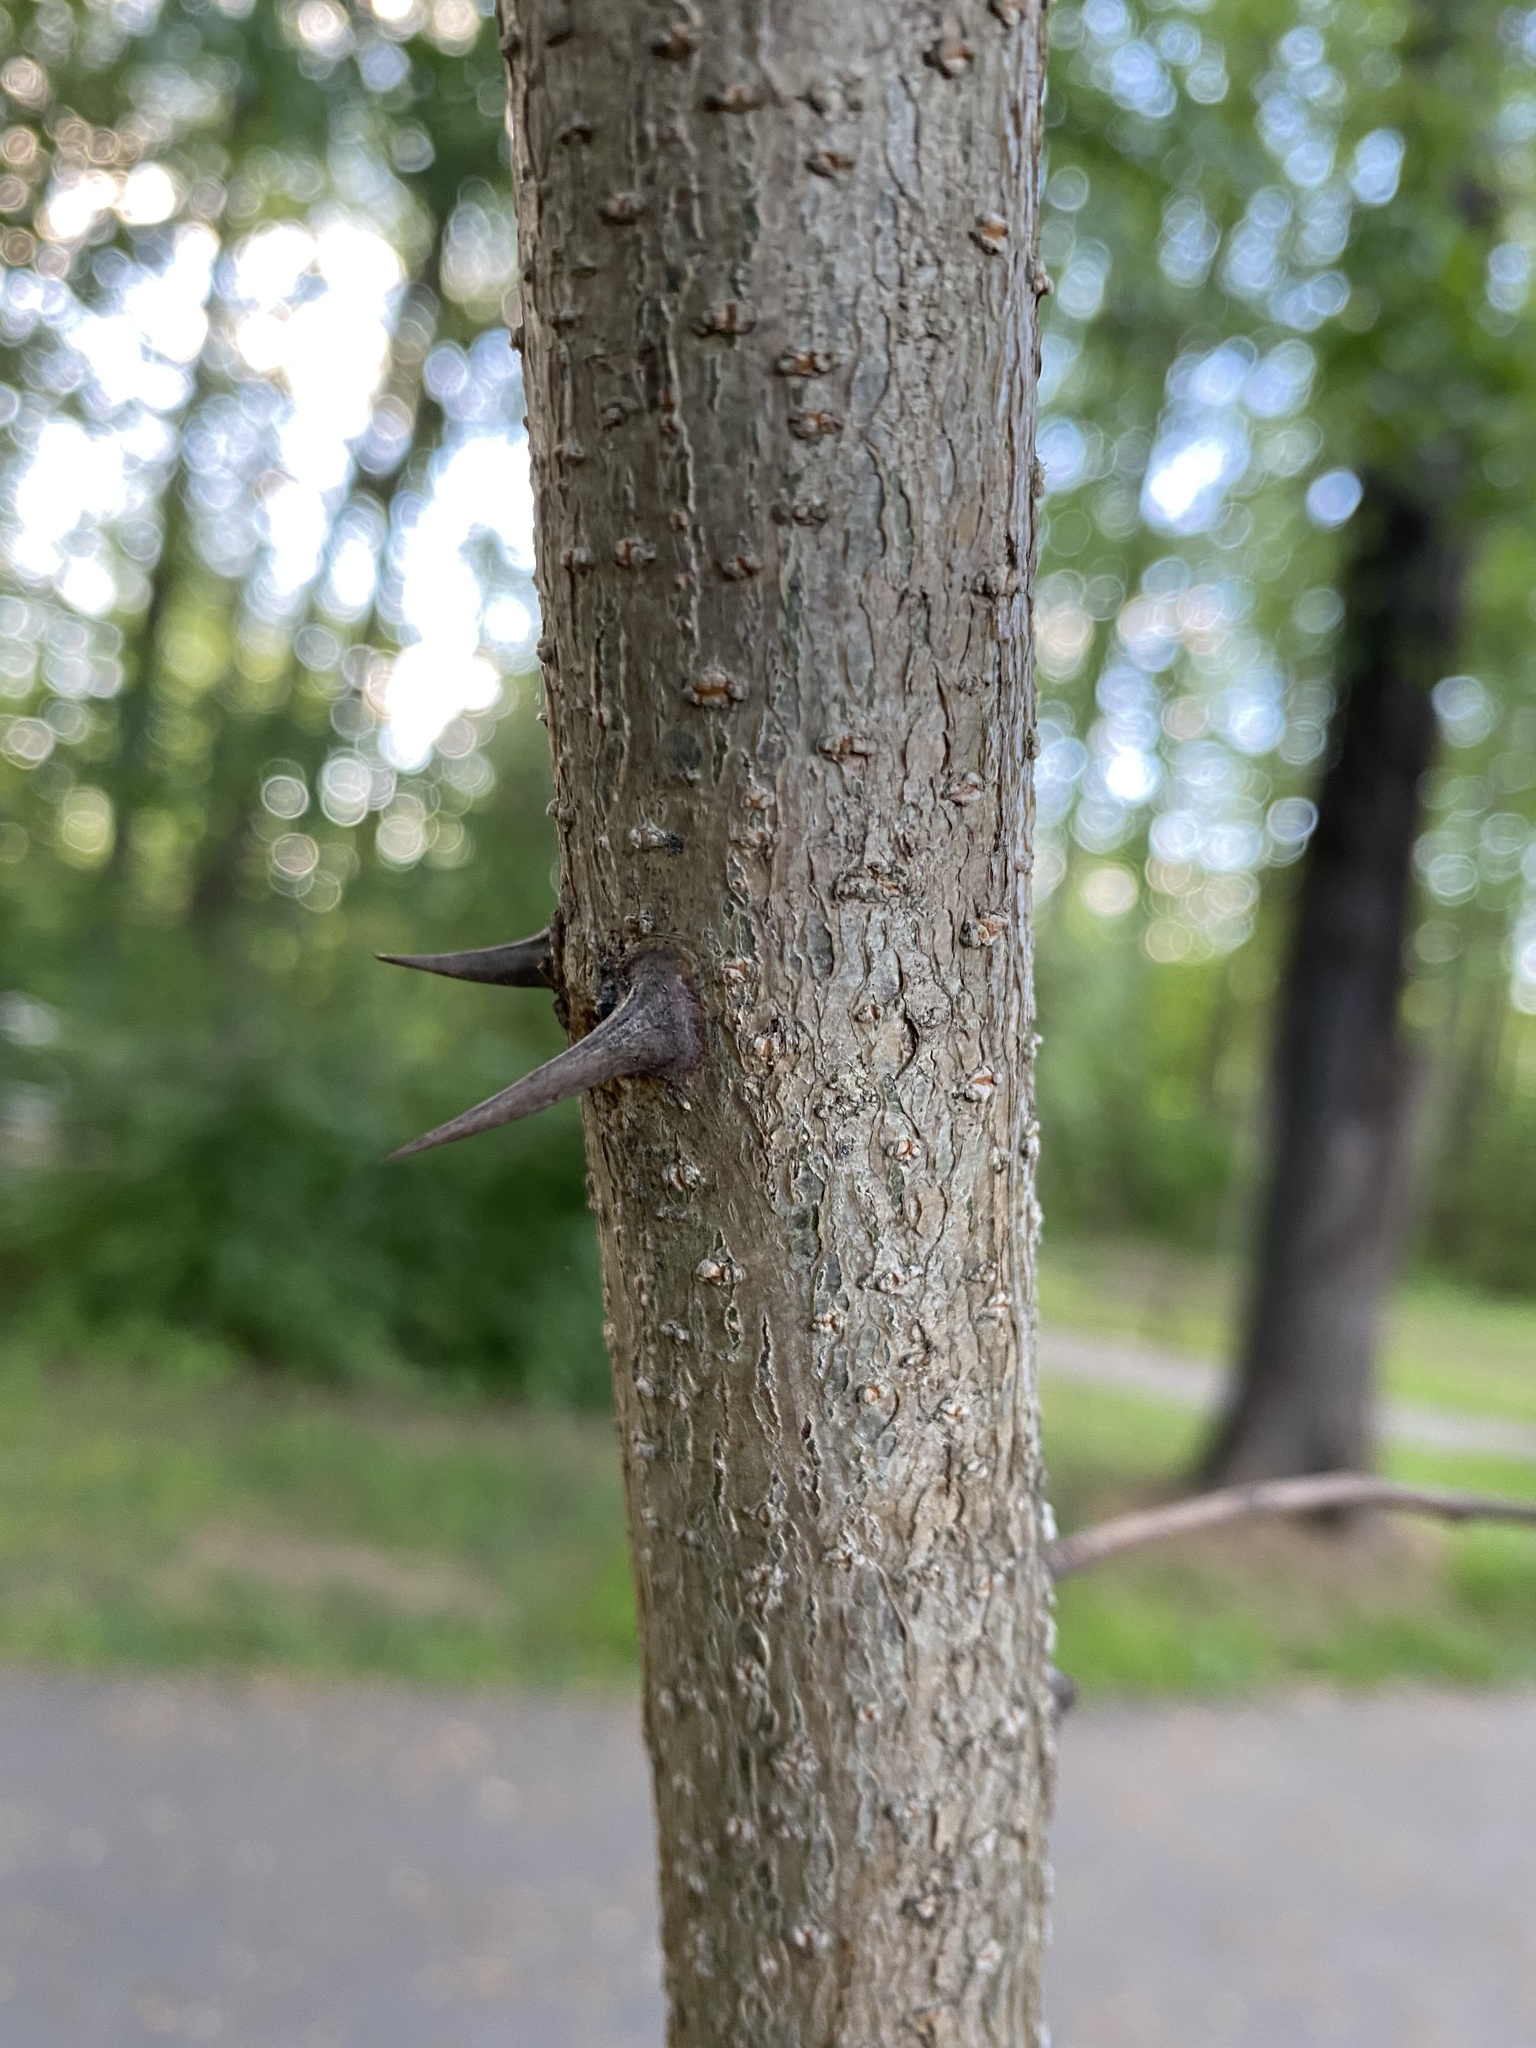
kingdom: Plantae
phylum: Tracheophyta
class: Magnoliopsida
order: Fabales
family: Fabaceae
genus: Robinia
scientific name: Robinia pseudoacacia
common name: Black locust
